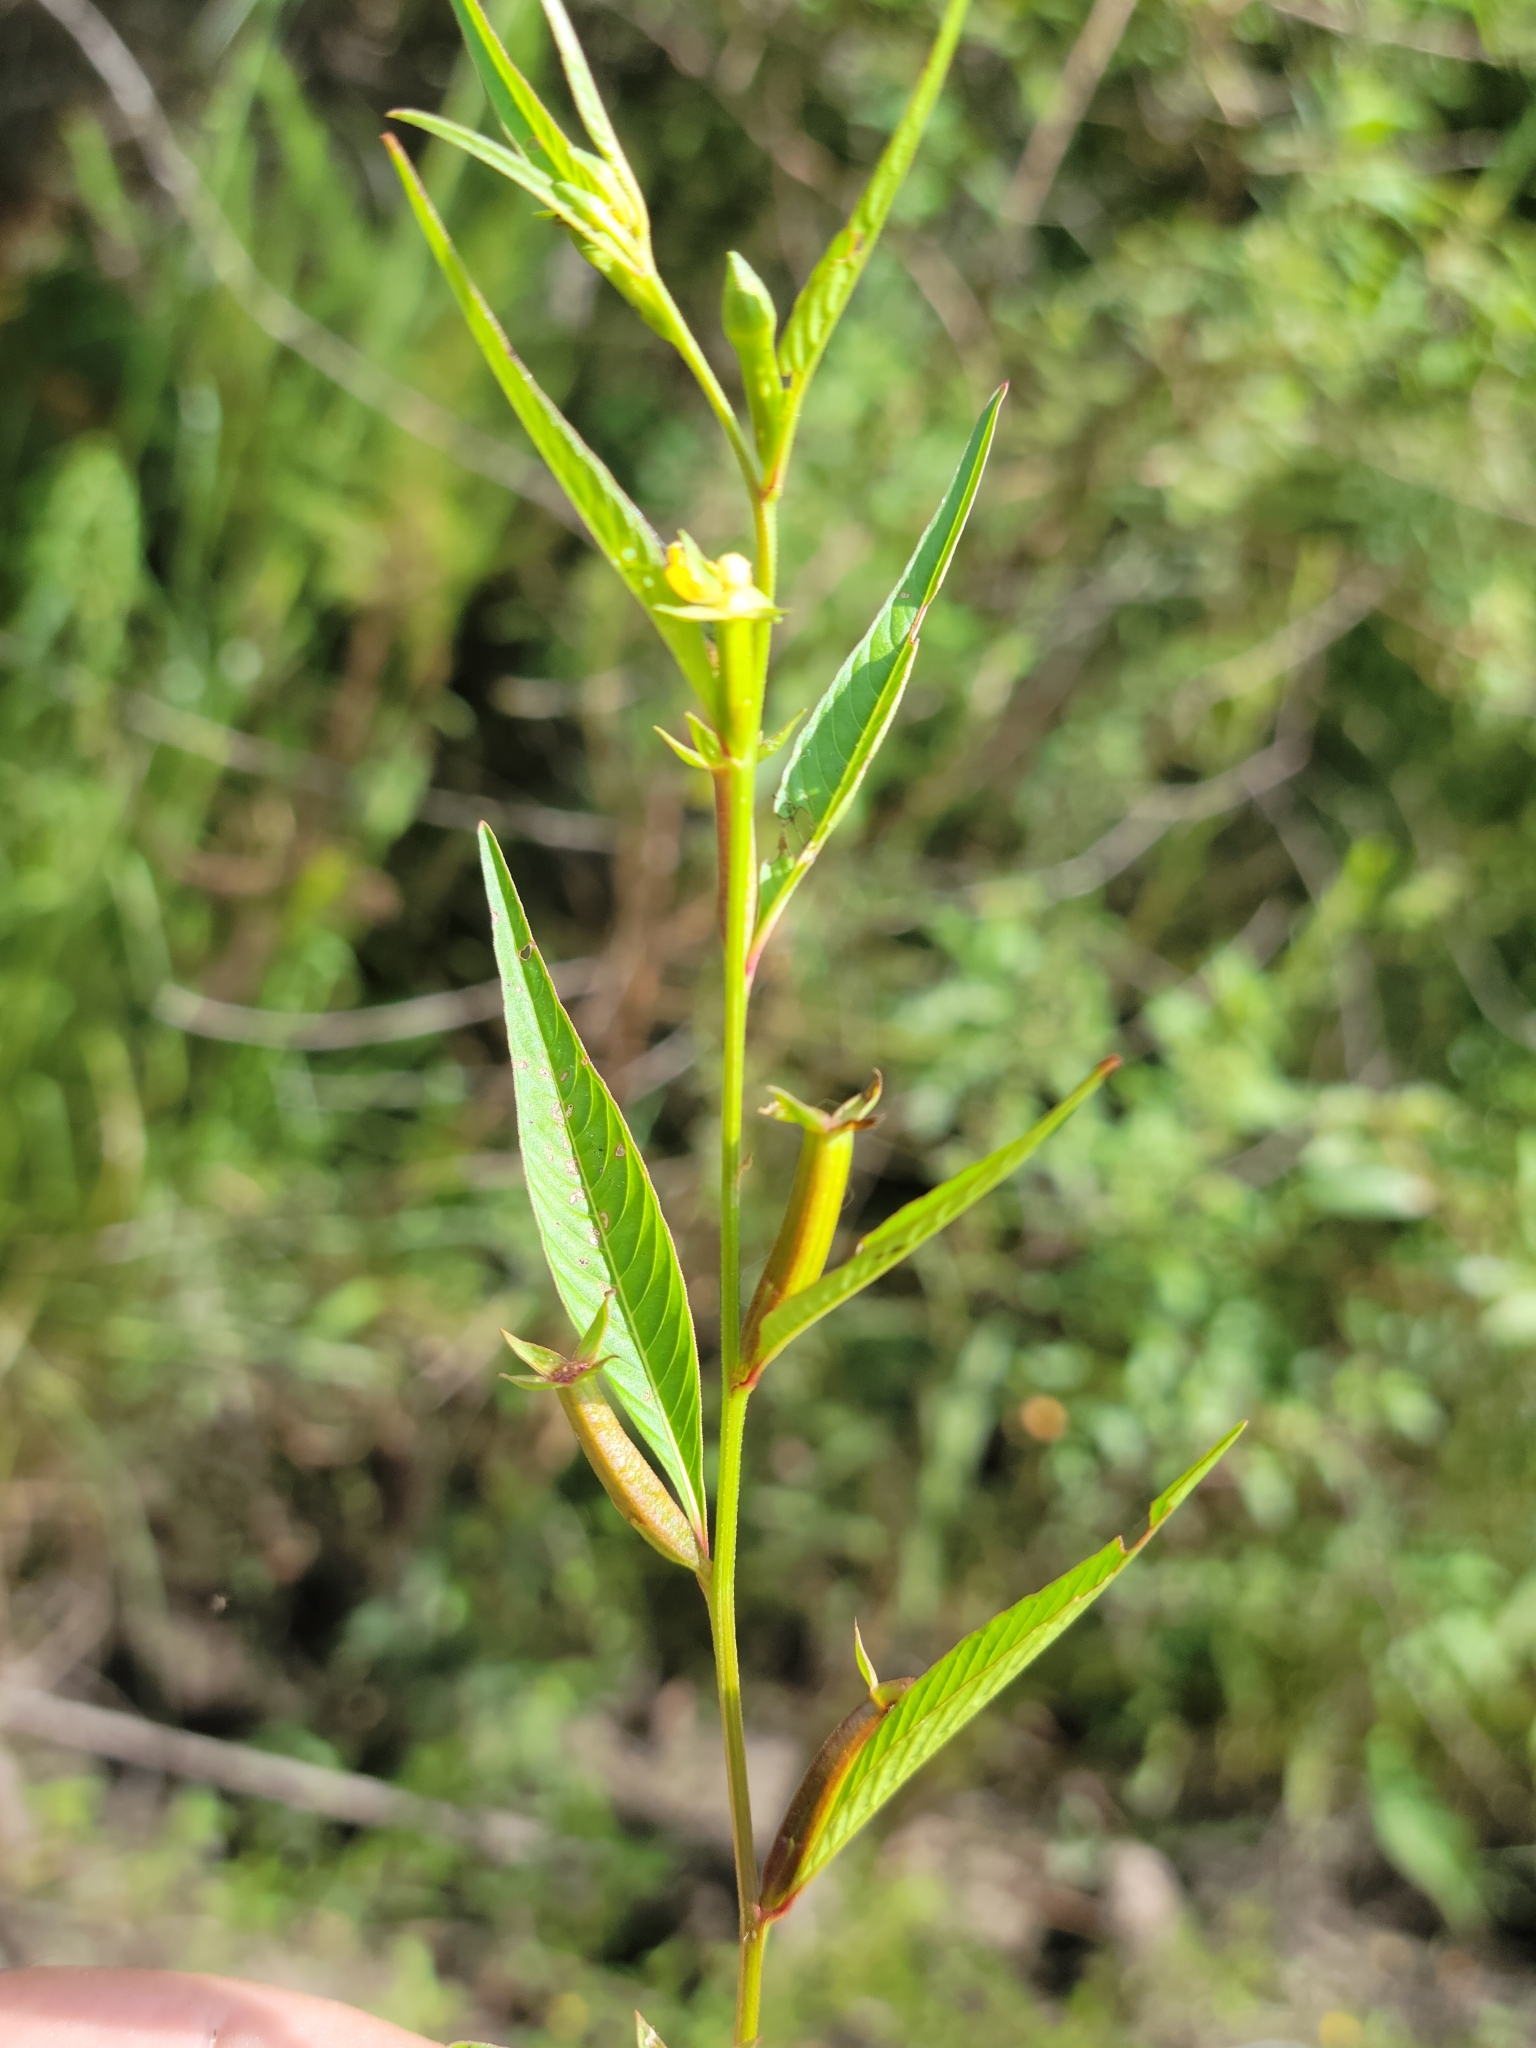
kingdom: Plantae
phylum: Tracheophyta
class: Magnoliopsida
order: Myrtales
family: Onagraceae
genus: Ludwigia
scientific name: Ludwigia erecta
